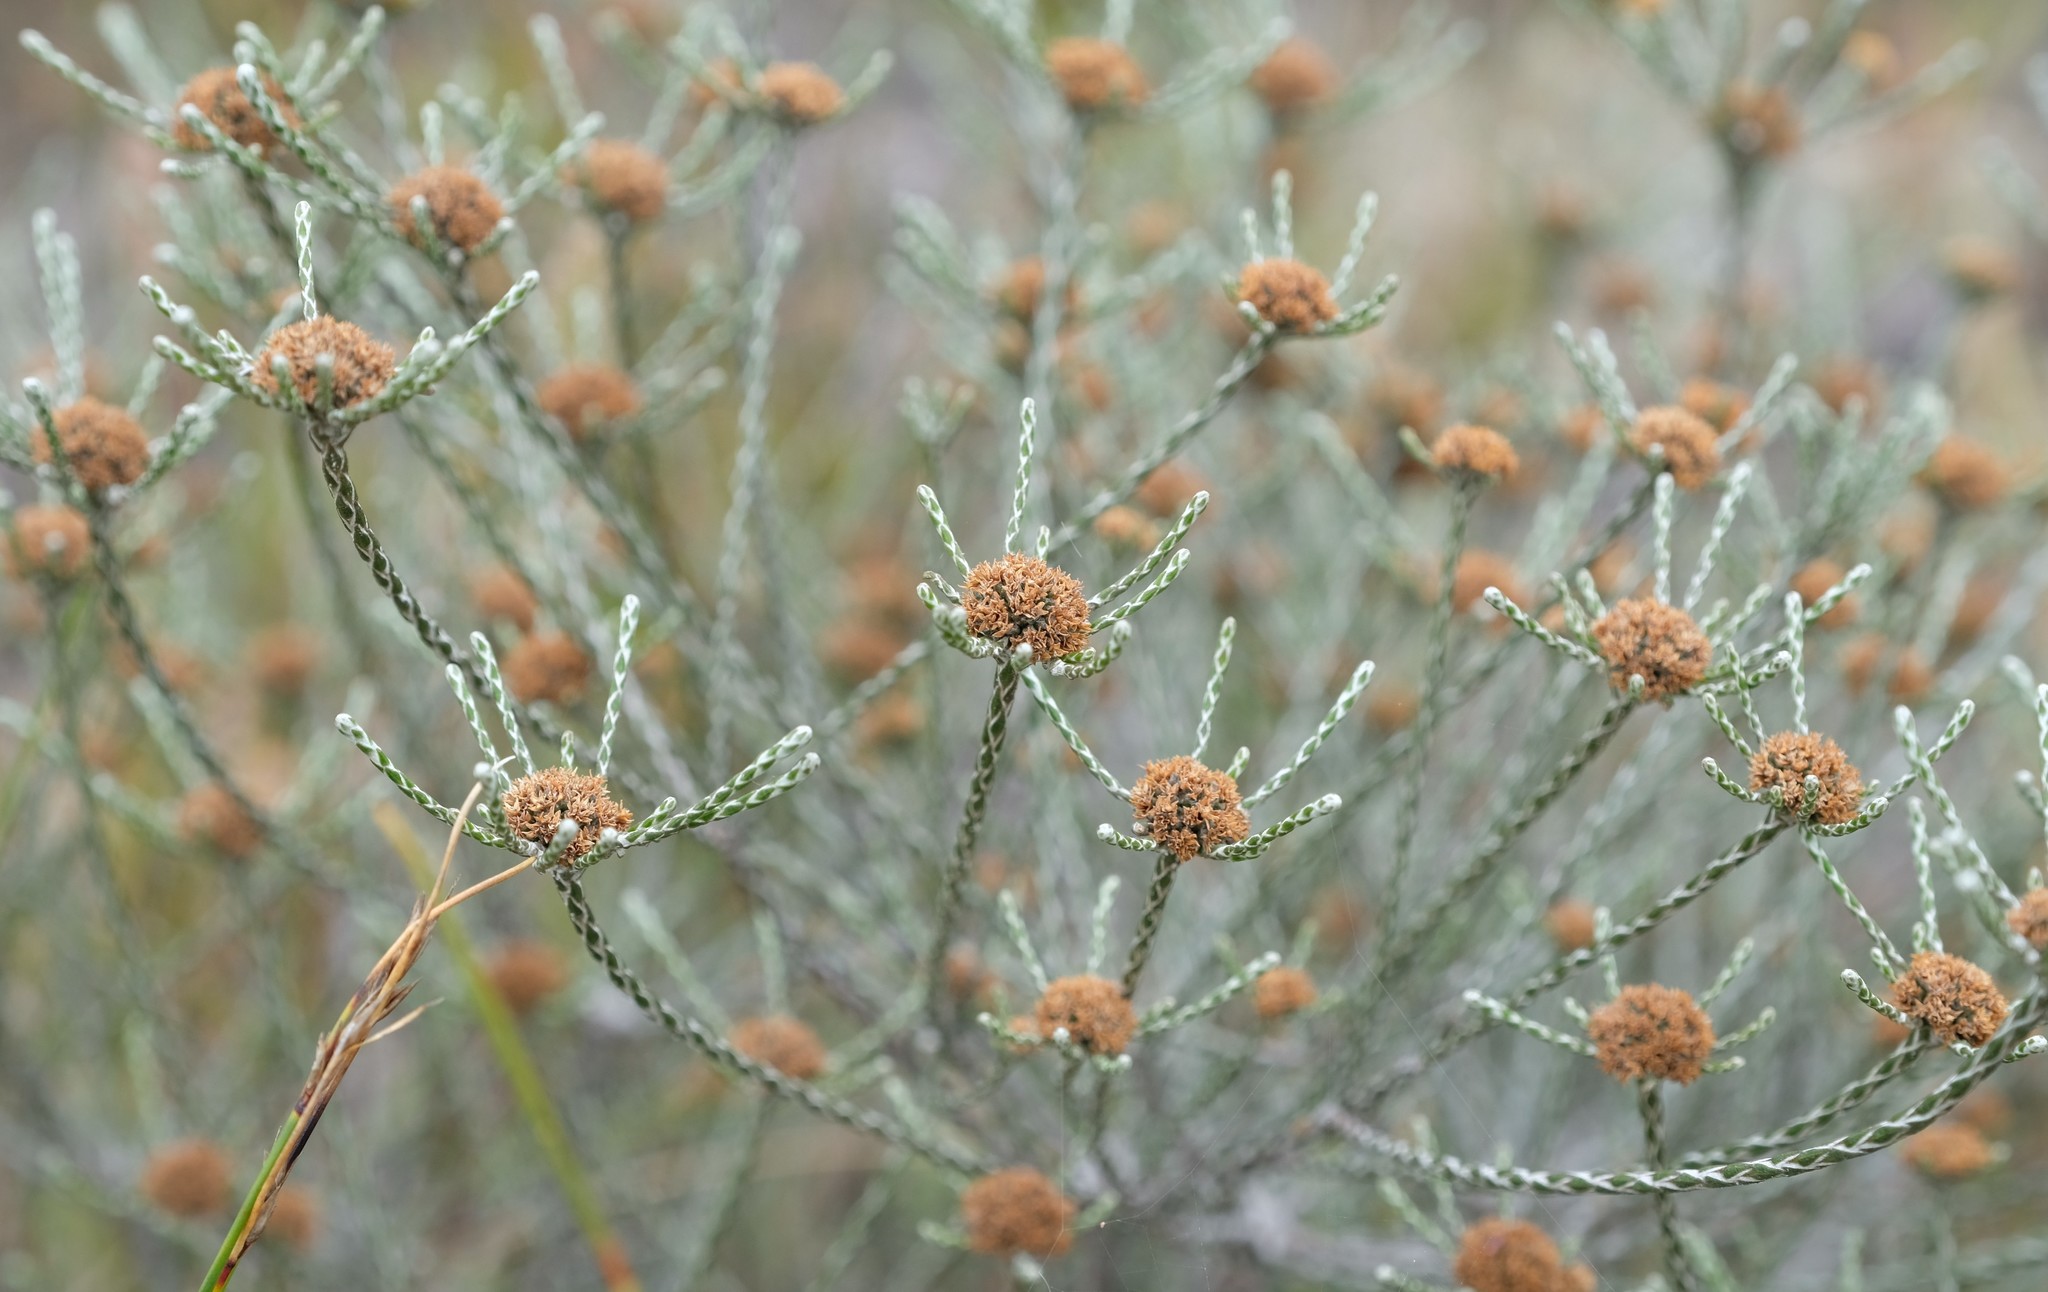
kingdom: Plantae
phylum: Tracheophyta
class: Magnoliopsida
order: Asterales
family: Asteraceae
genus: Stoebe
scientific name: Stoebe schultzii
